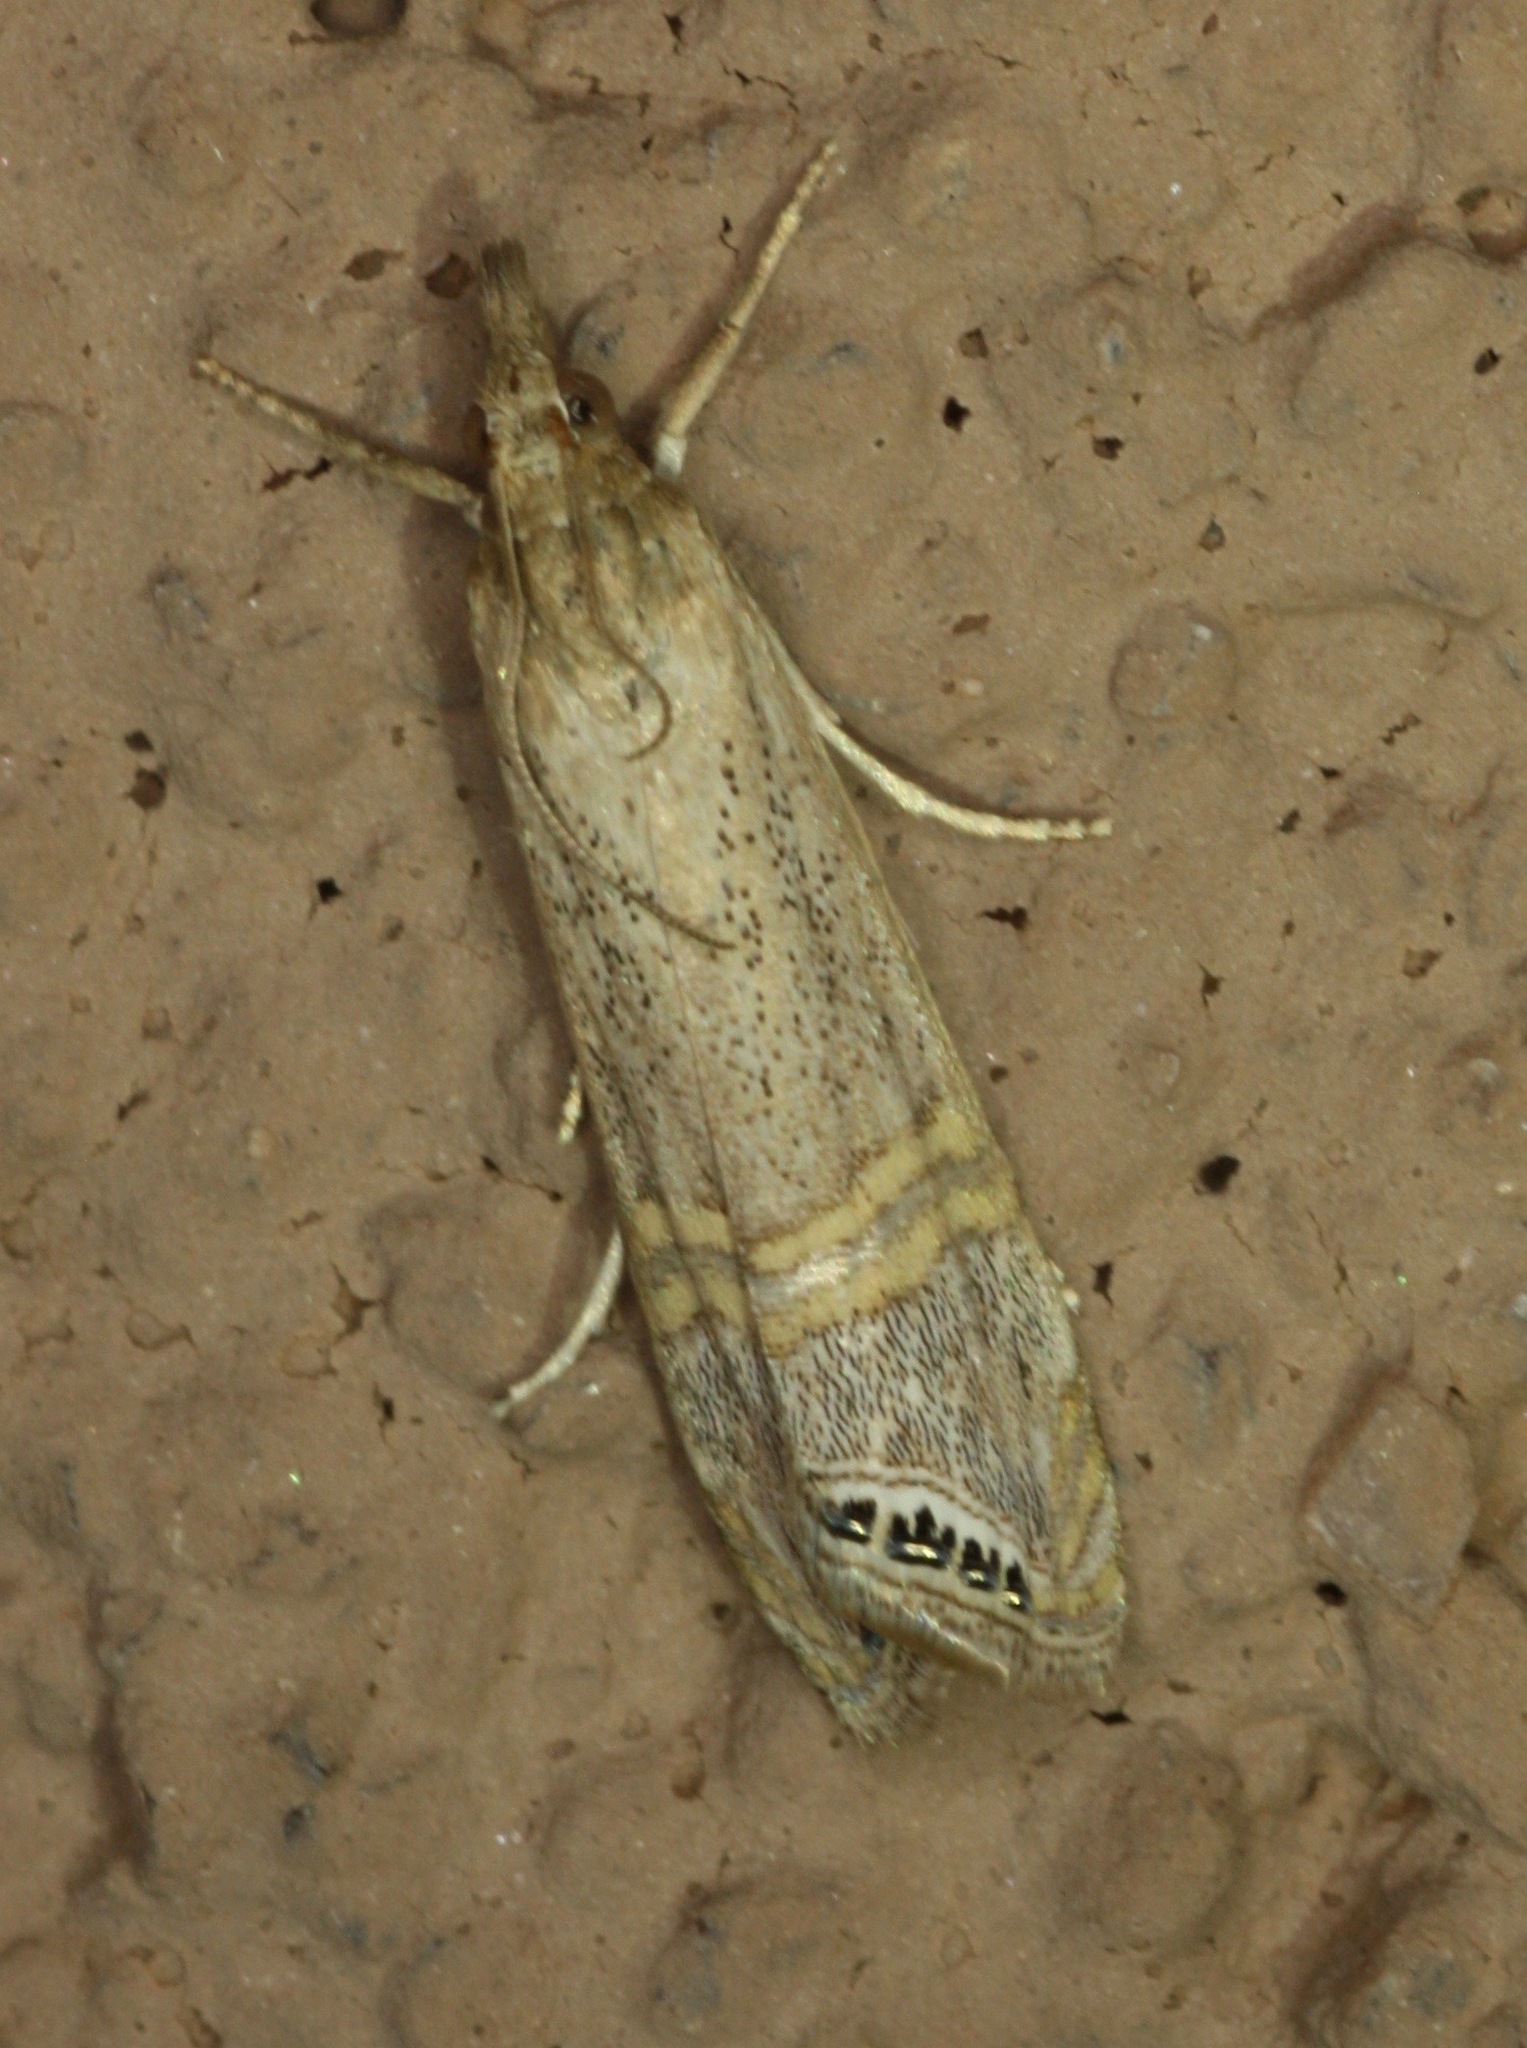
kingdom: Animalia
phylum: Arthropoda
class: Insecta
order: Lepidoptera
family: Crambidae
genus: Euchromius
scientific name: Euchromius ocellea
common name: Necklace veneer moth
